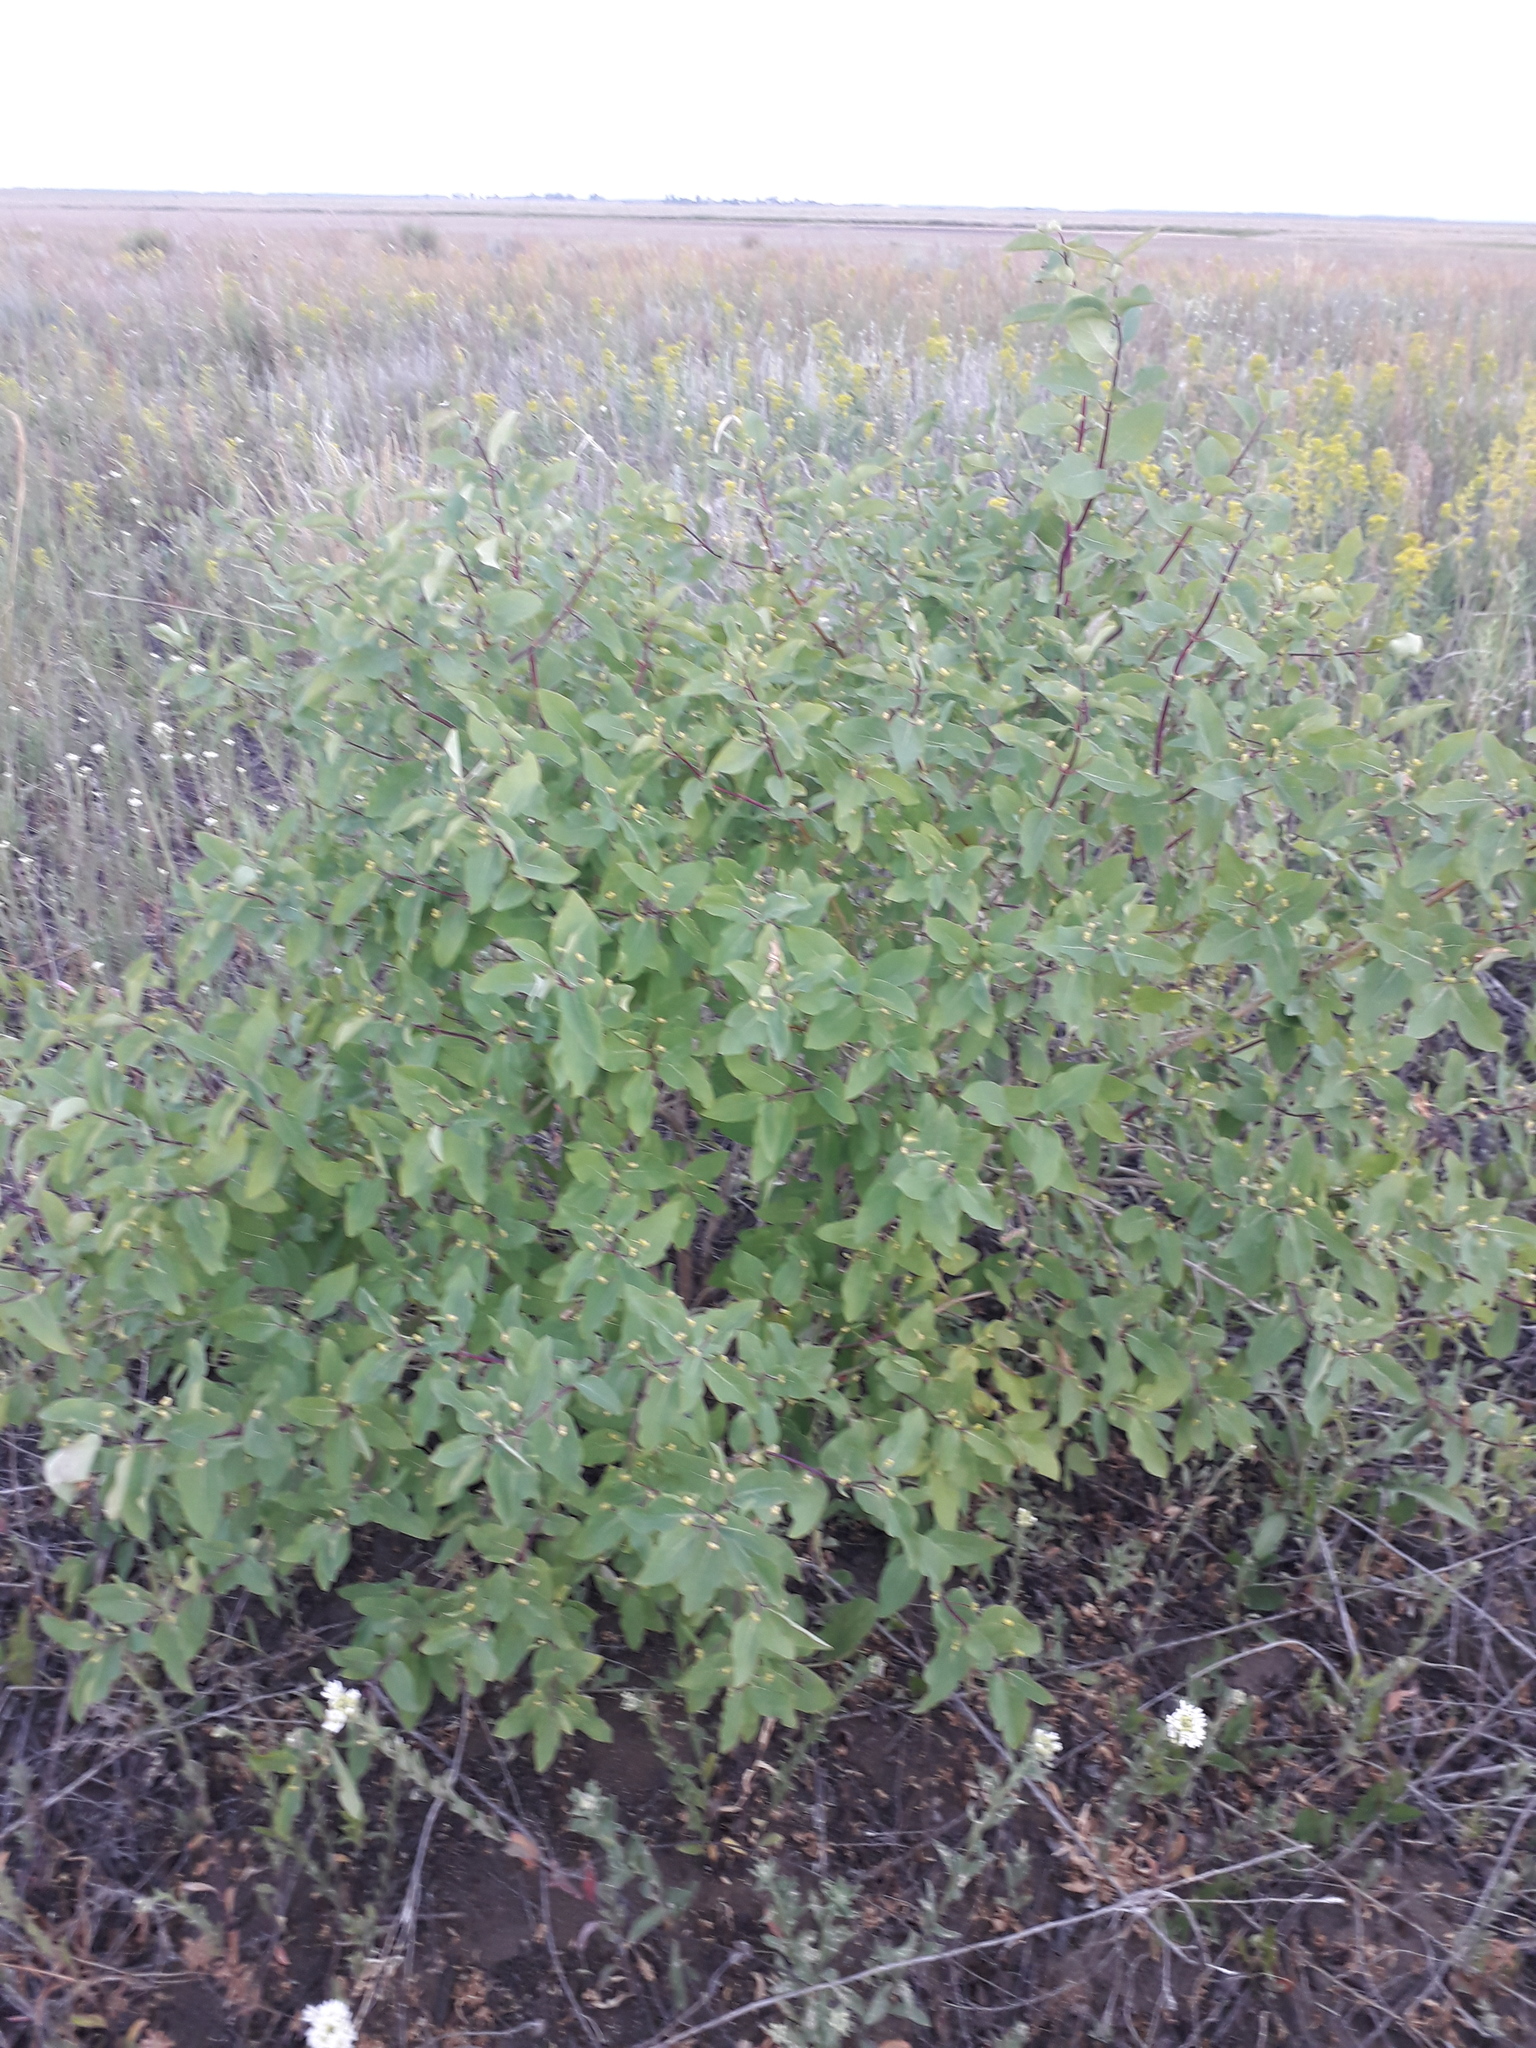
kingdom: Plantae
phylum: Tracheophyta
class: Magnoliopsida
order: Dipsacales
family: Caprifoliaceae
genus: Lonicera
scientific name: Lonicera tatarica
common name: Tatarian honeysuckle
